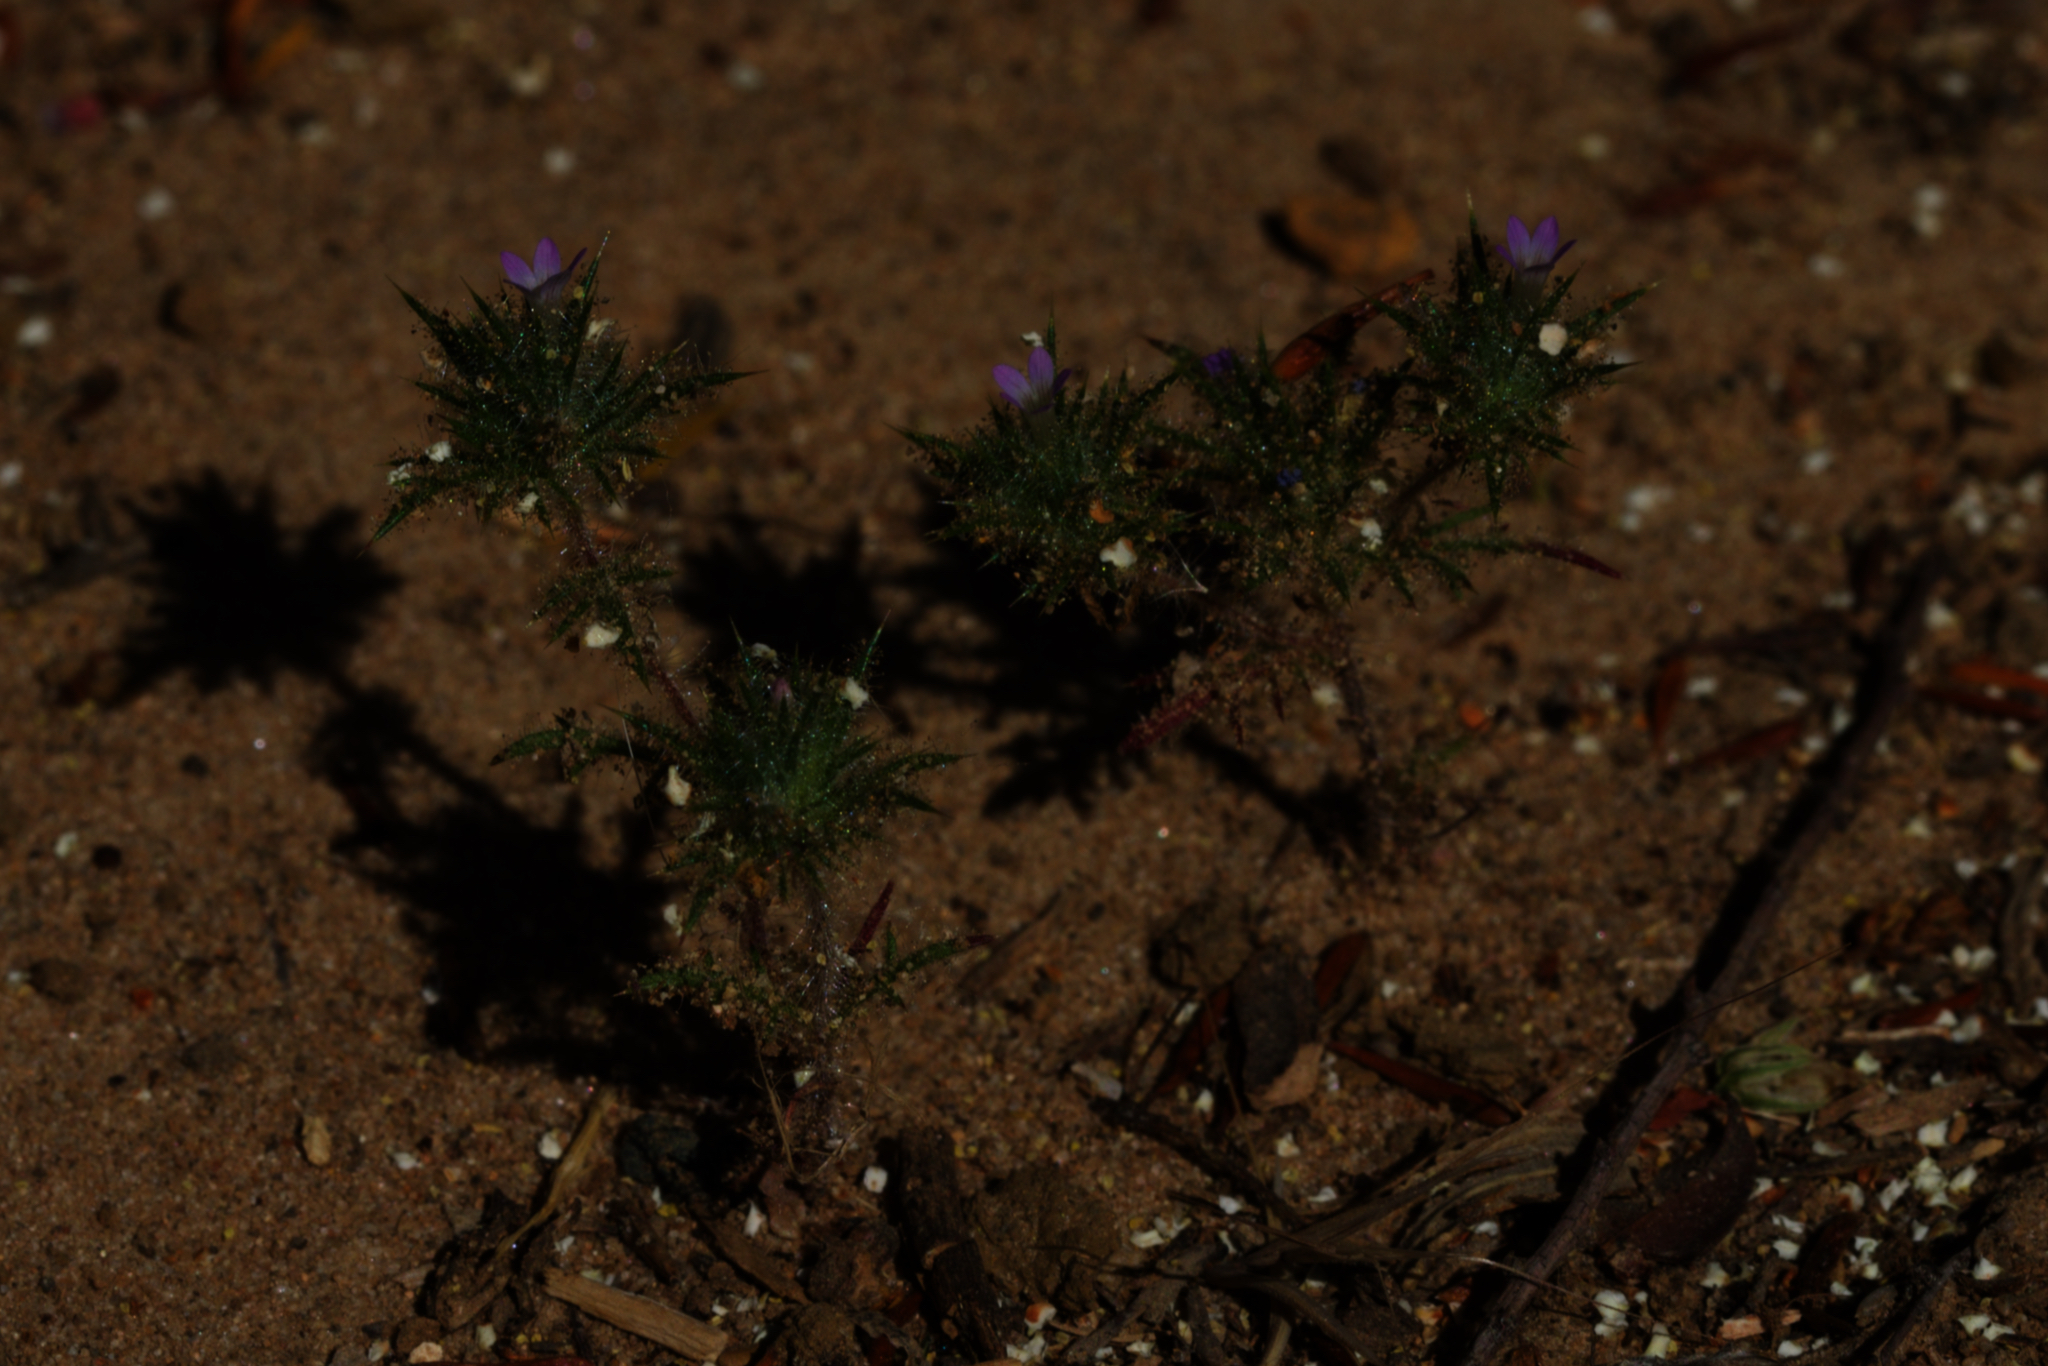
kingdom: Plantae
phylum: Tracheophyta
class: Magnoliopsida
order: Ericales
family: Polemoniaceae
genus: Navarretia
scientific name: Navarretia mellita
